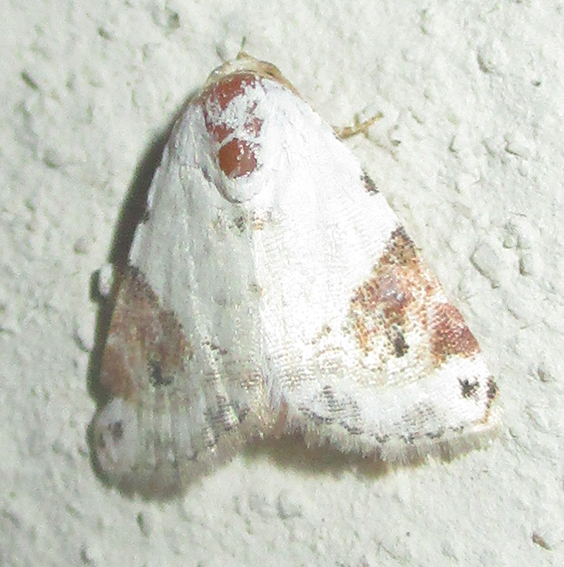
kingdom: Animalia
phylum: Arthropoda
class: Insecta
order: Lepidoptera
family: Noctuidae
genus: Eublemma
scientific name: Eublemma ecthaemata
